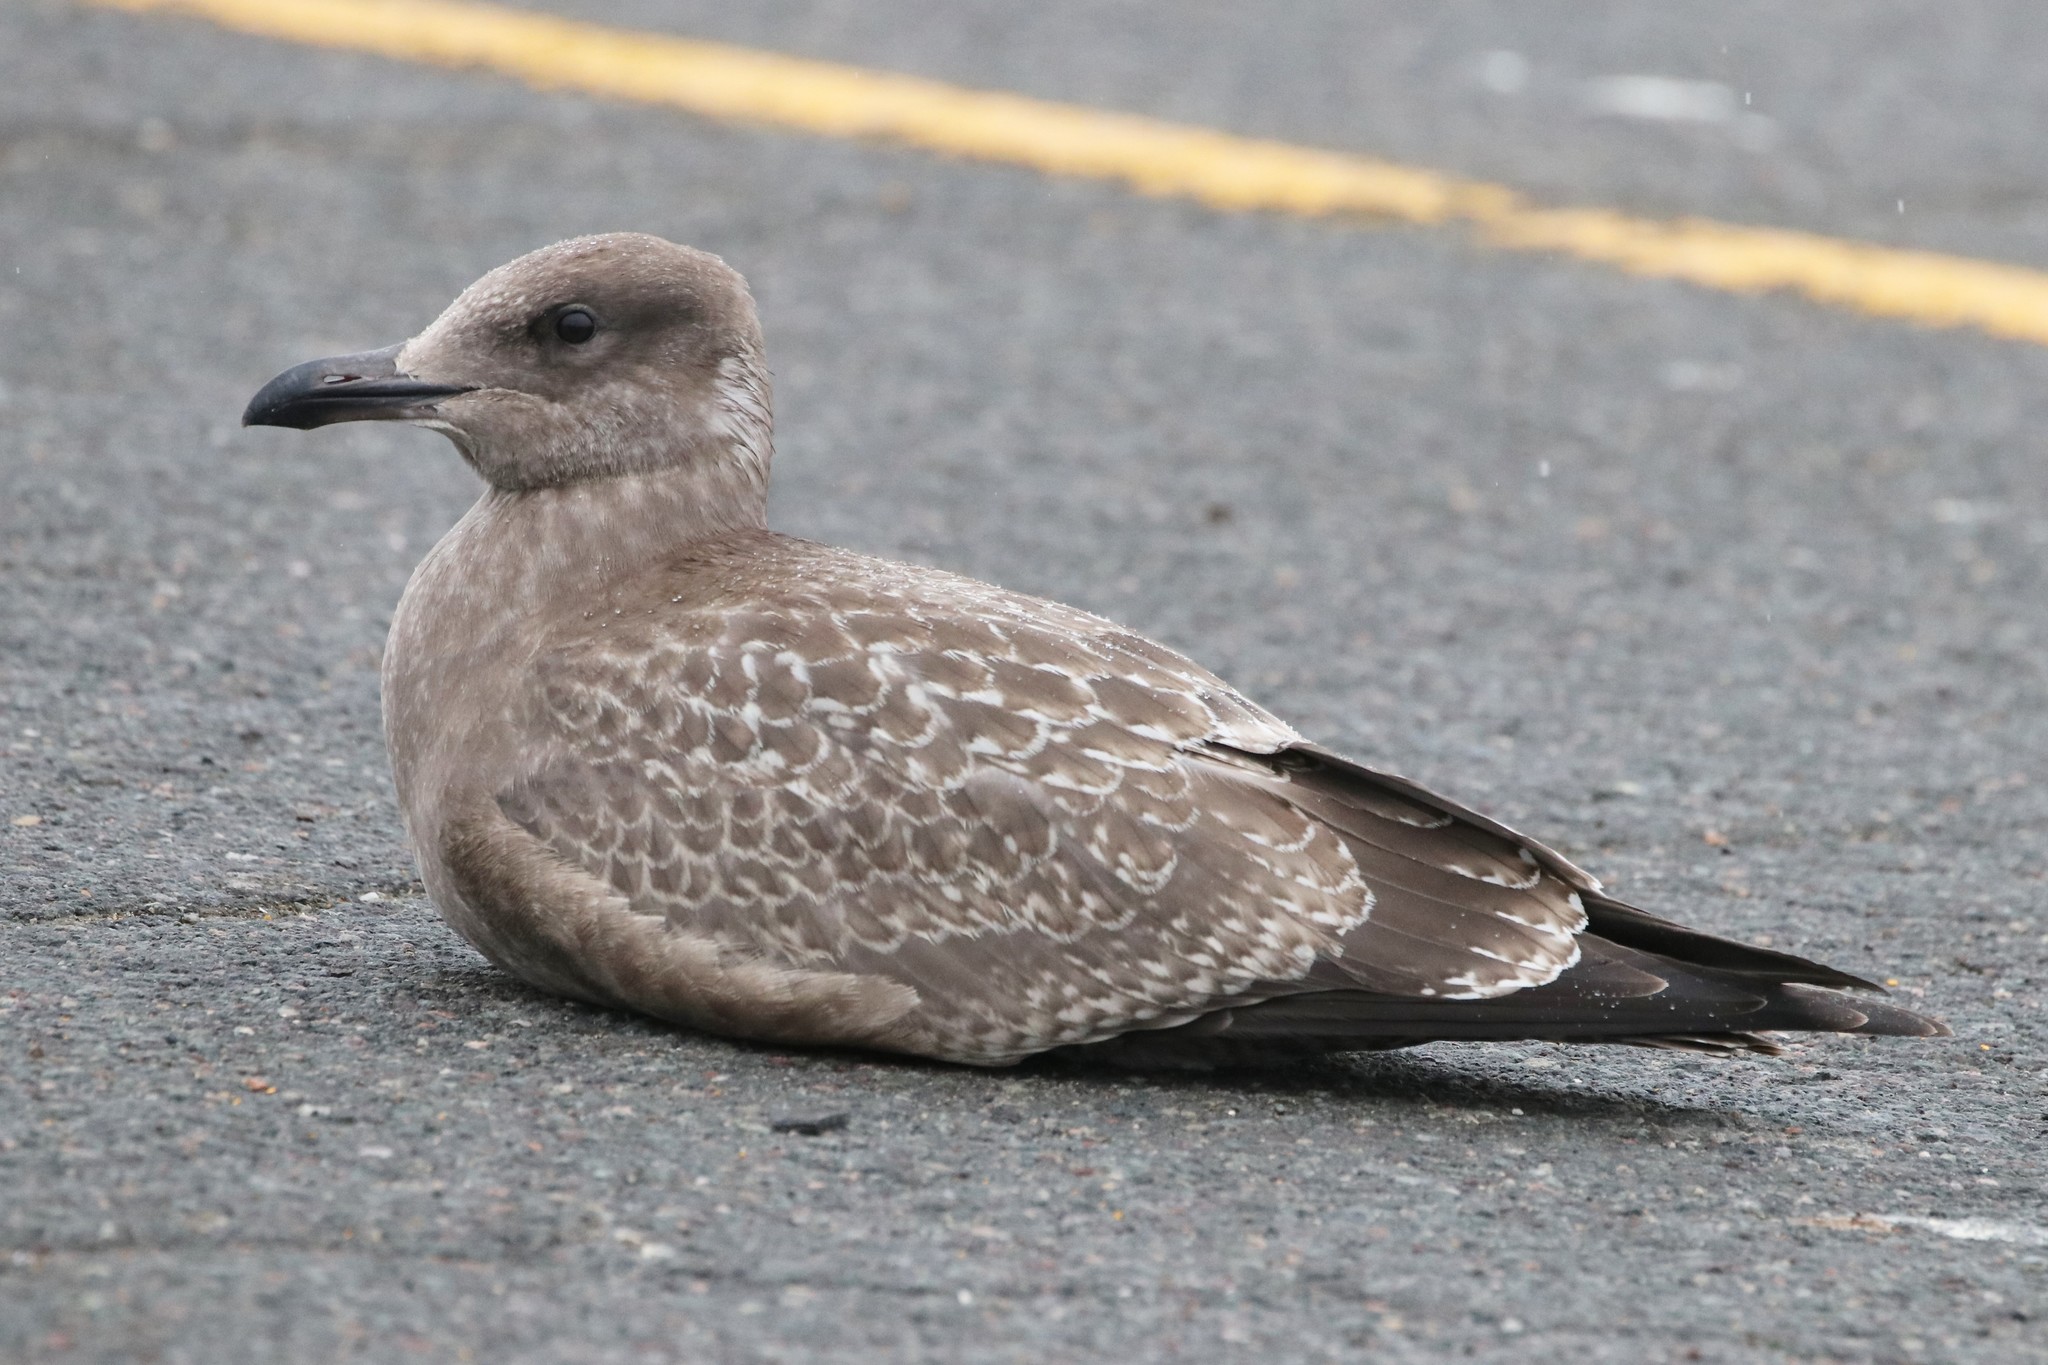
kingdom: Animalia
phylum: Chordata
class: Aves
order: Charadriiformes
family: Laridae
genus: Larus
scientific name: Larus argentatus
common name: Herring gull
